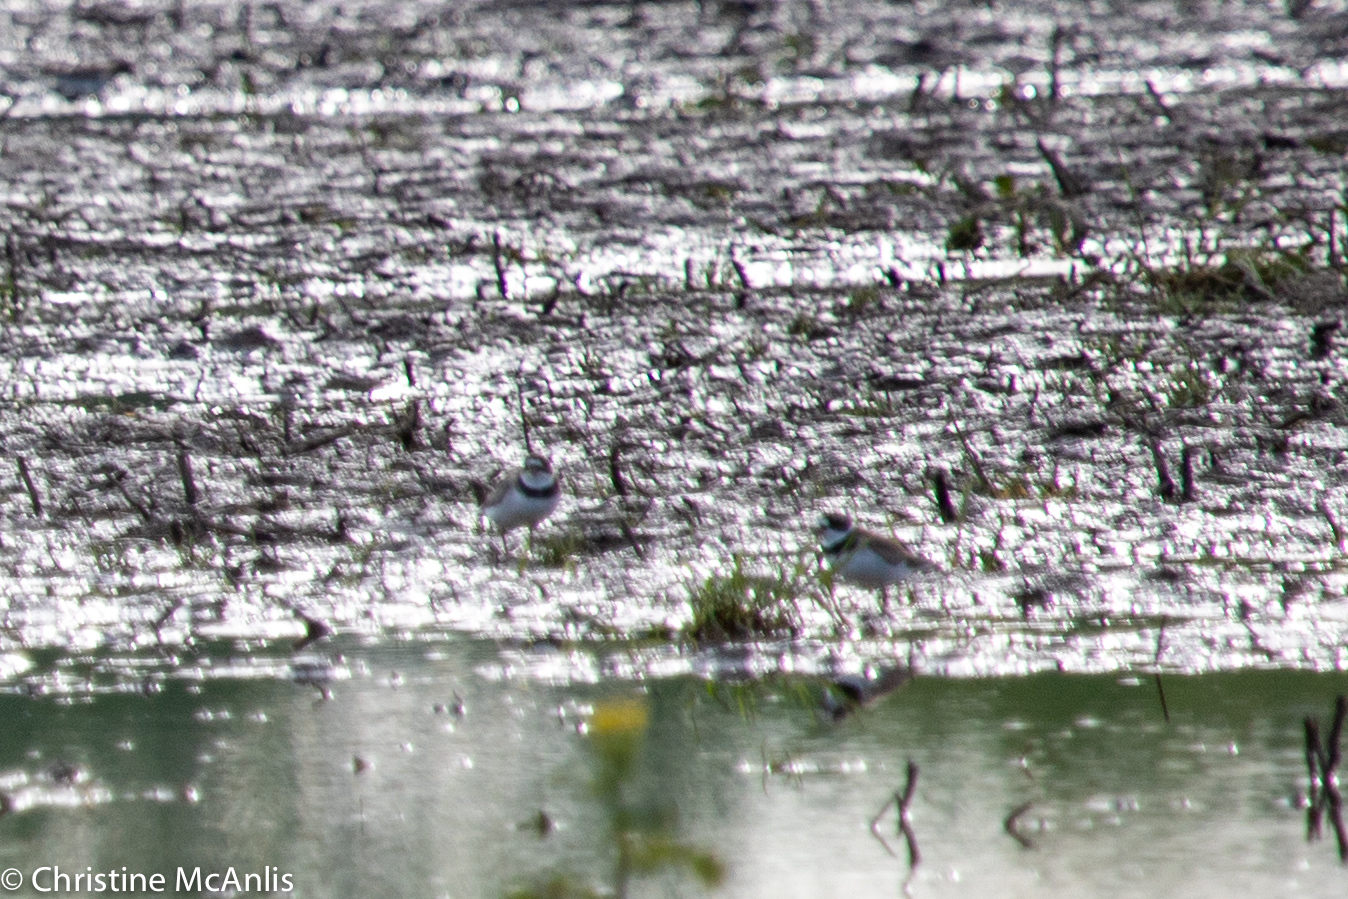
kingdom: Animalia
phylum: Chordata
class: Aves
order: Charadriiformes
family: Charadriidae
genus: Charadrius
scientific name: Charadrius semipalmatus
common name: Semipalmated plover
